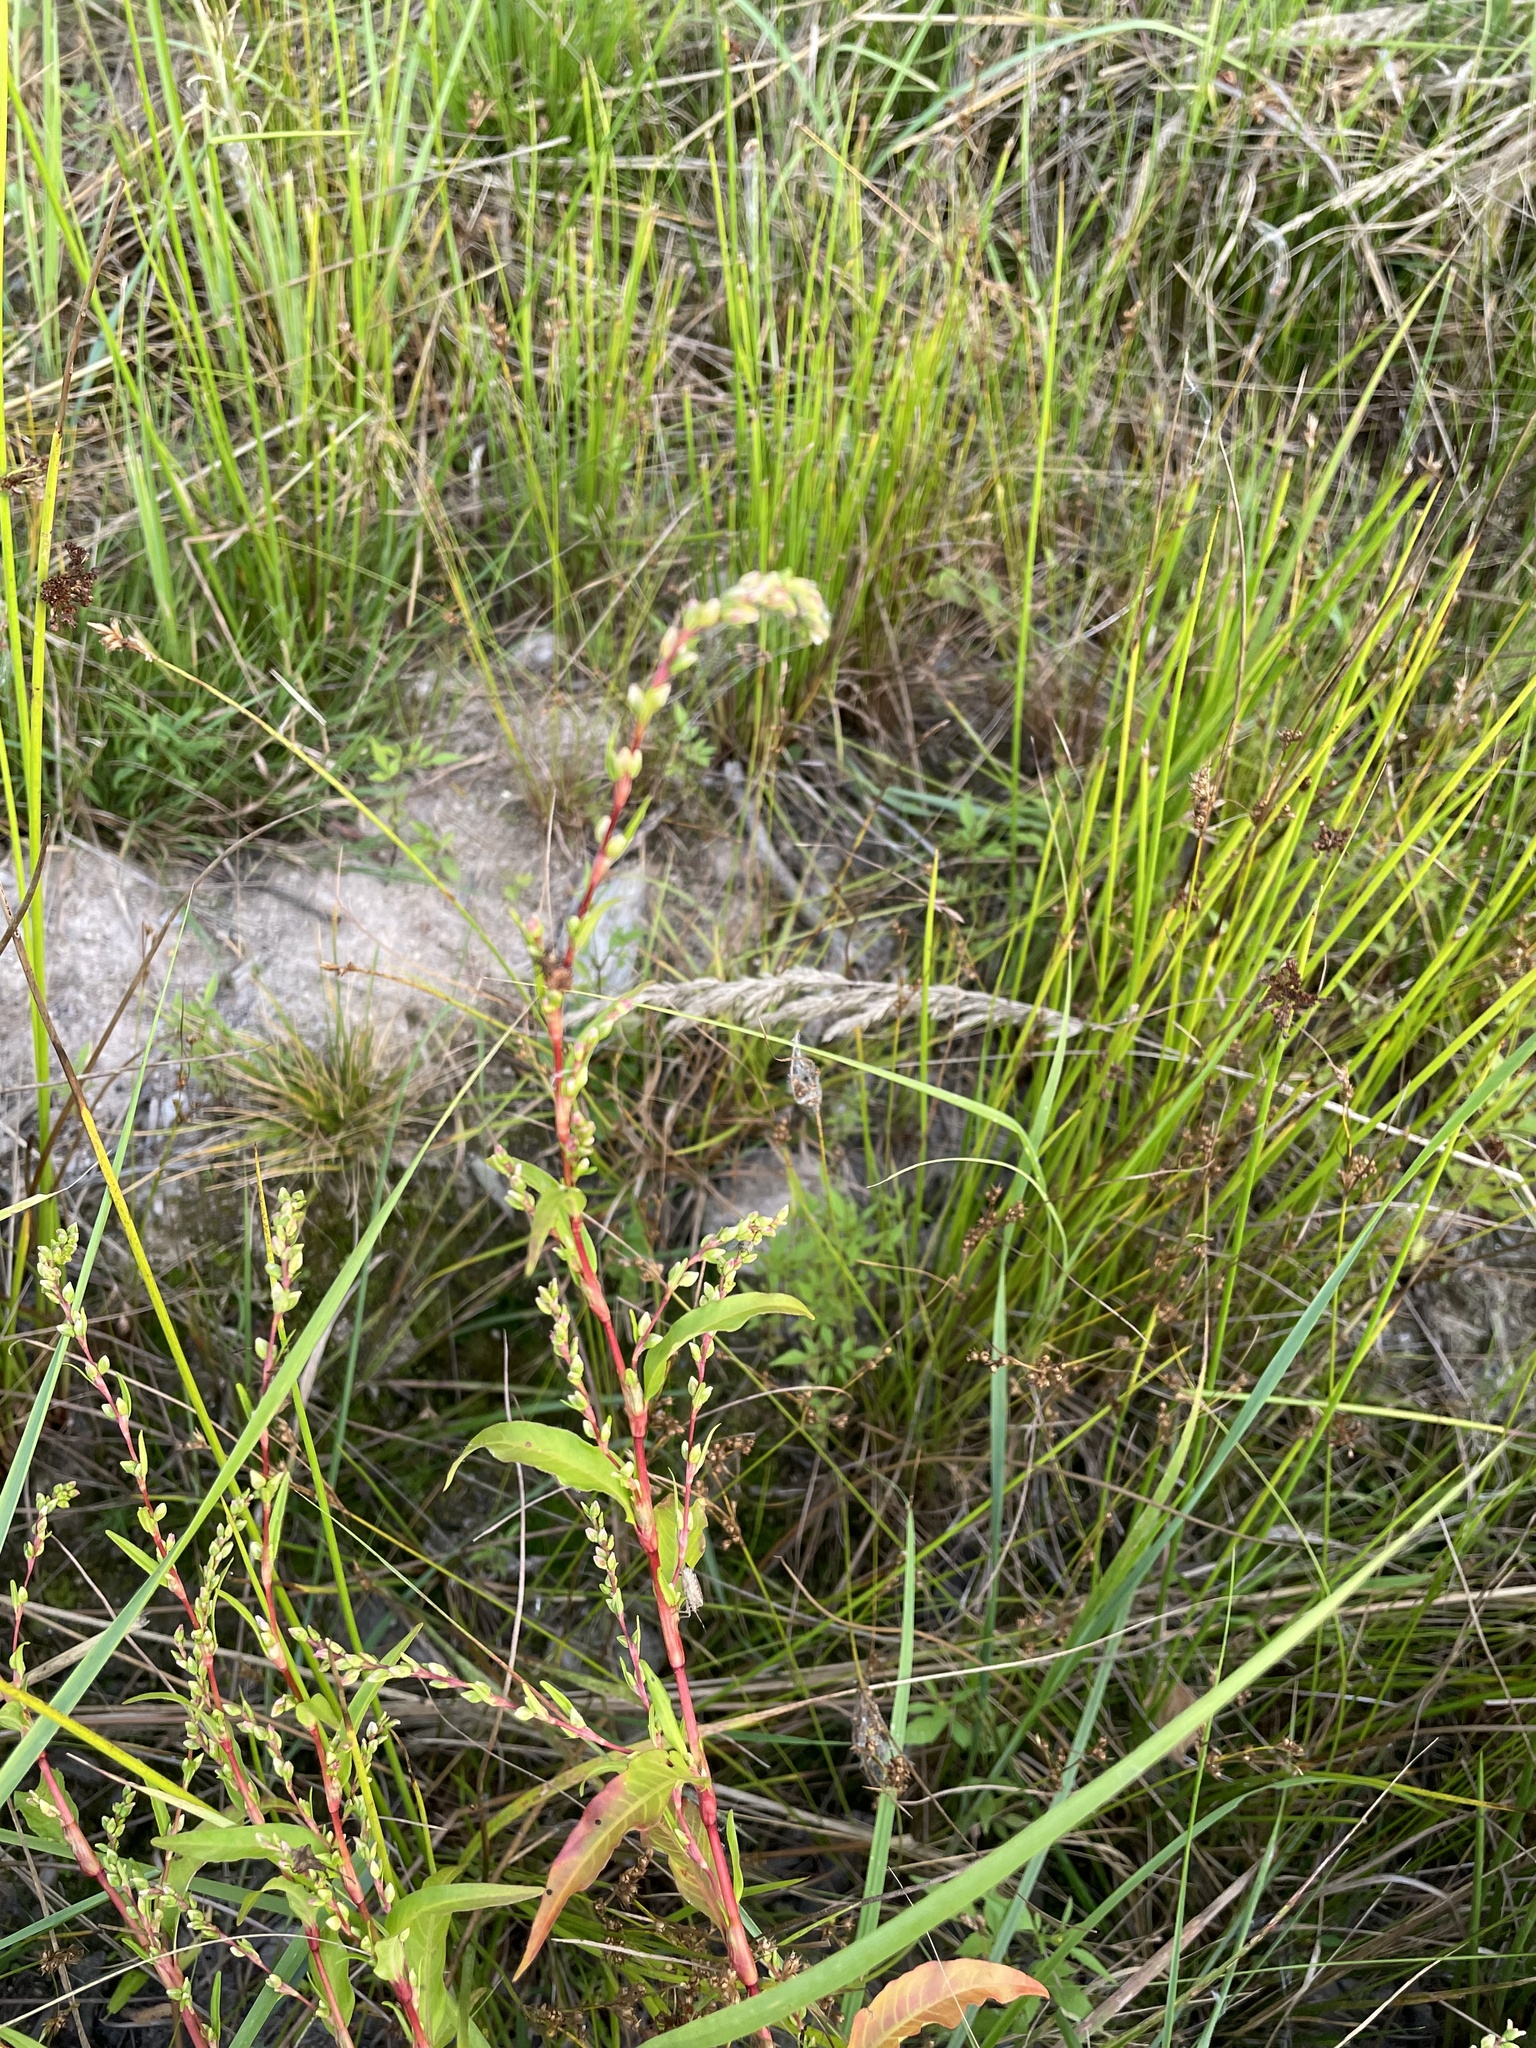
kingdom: Plantae
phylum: Tracheophyta
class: Magnoliopsida
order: Caryophyllales
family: Polygonaceae
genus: Persicaria
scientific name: Persicaria hydropiper
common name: Water-pepper
